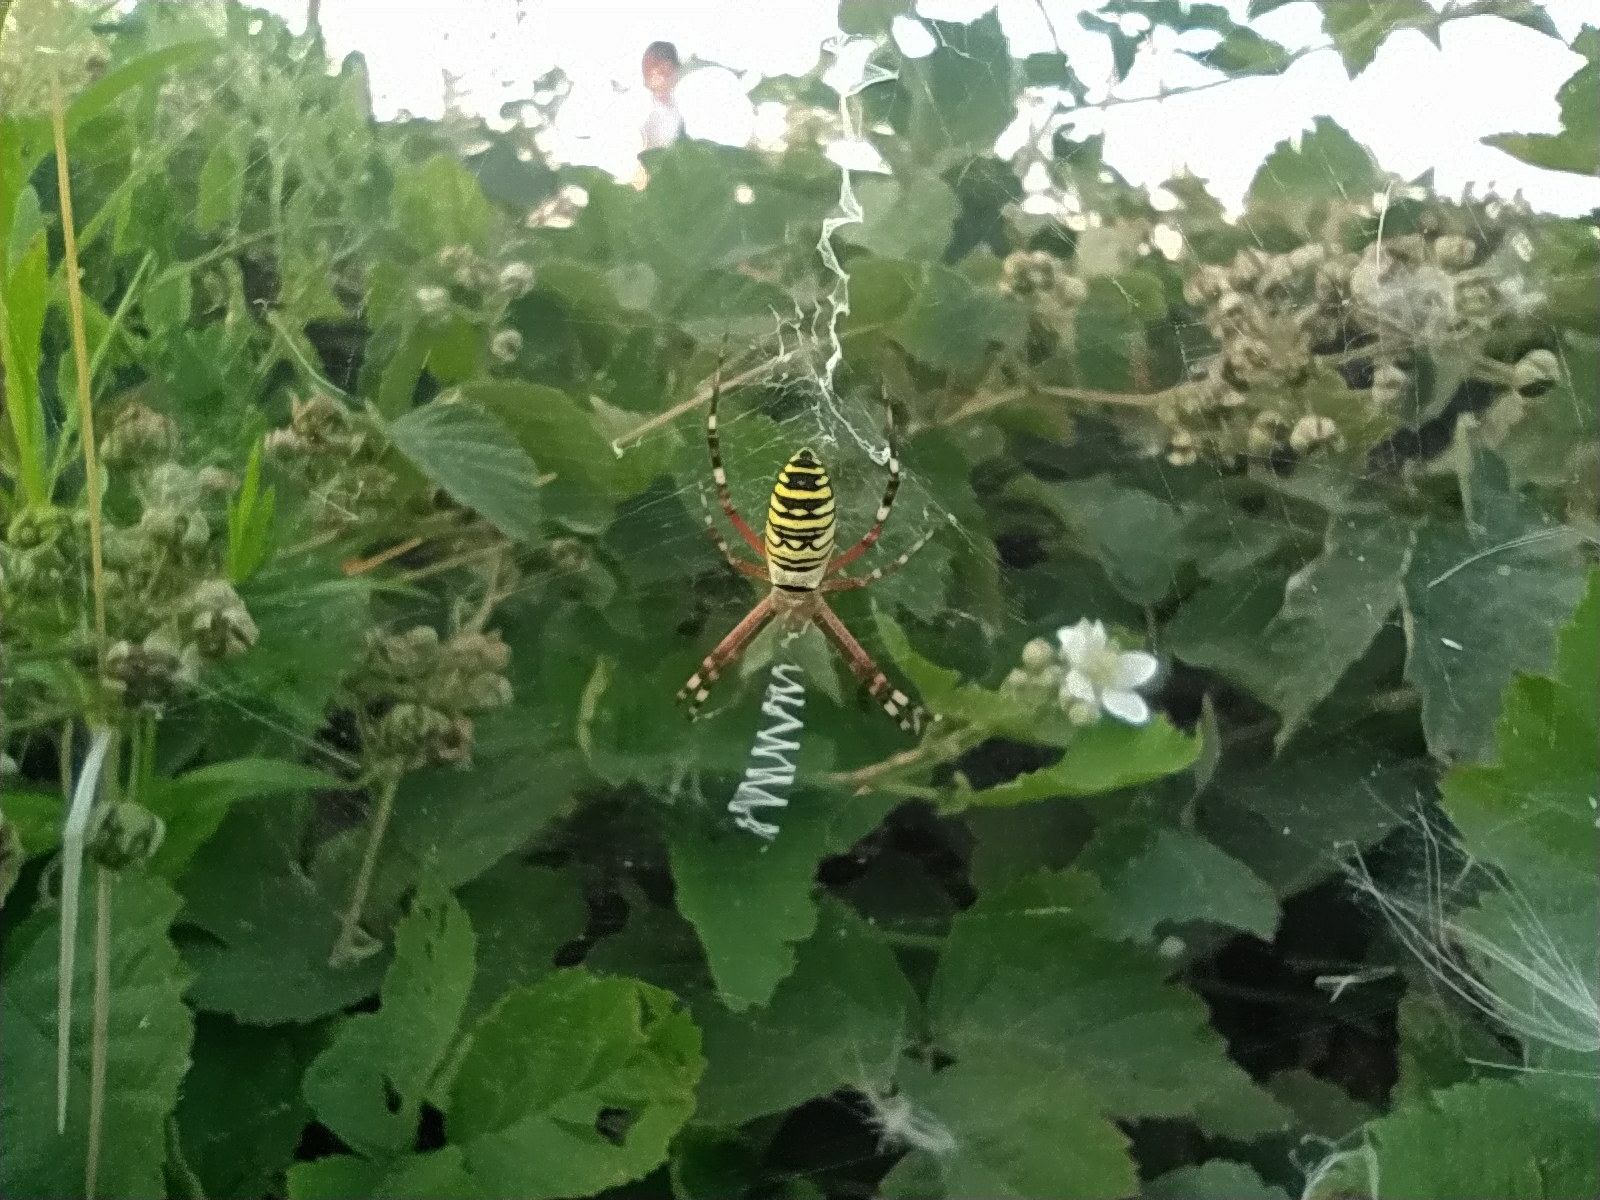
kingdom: Animalia
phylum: Arthropoda
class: Arachnida
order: Araneae
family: Araneidae
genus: Argiope
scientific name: Argiope bruennichi
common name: Wasp spider
